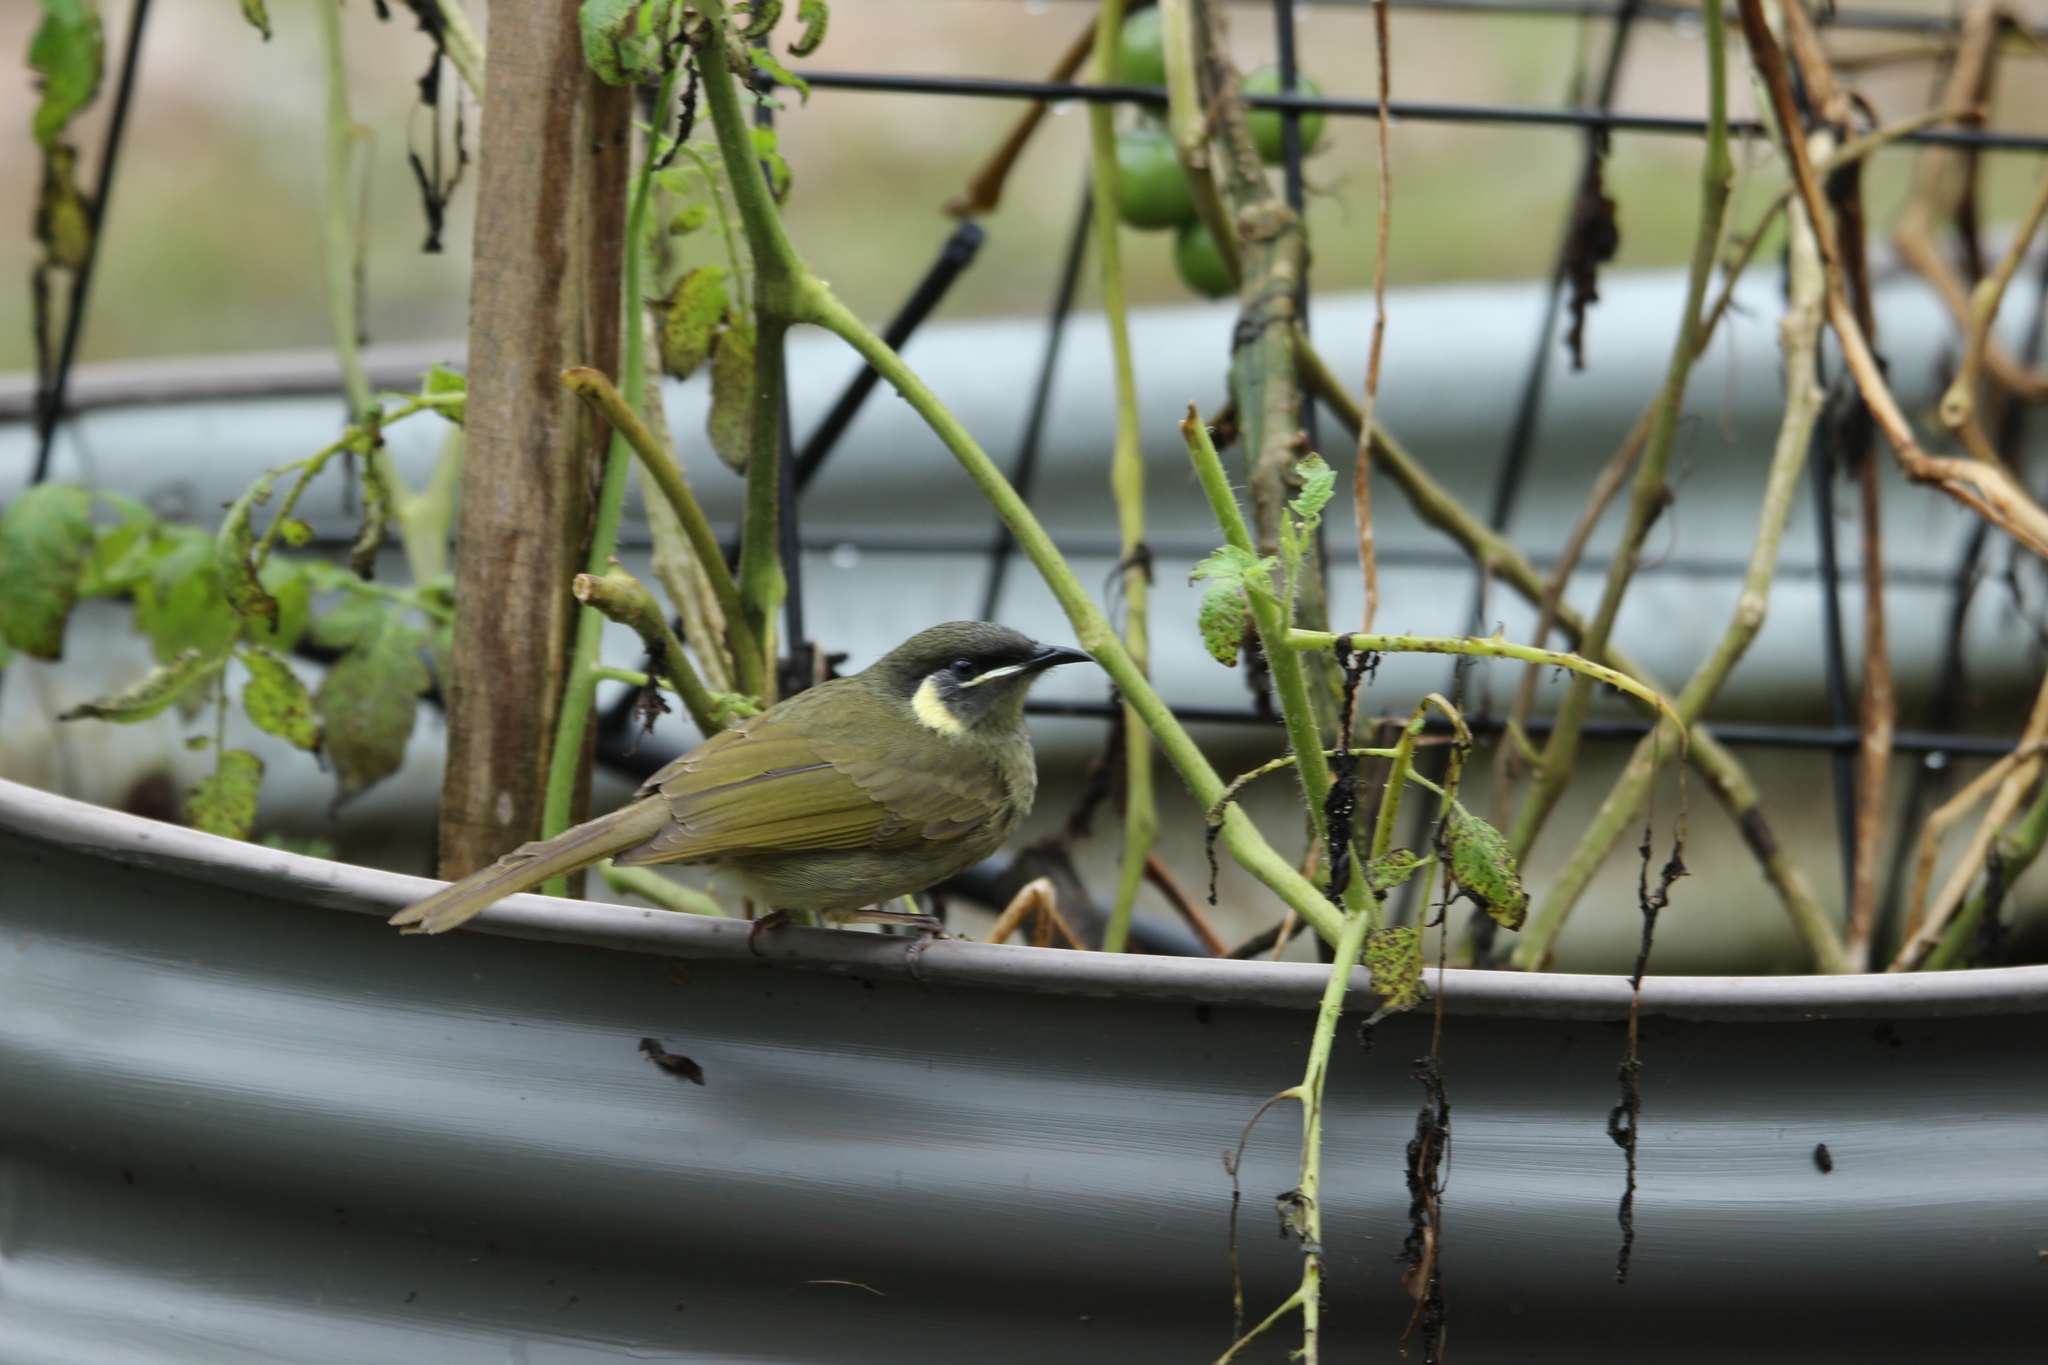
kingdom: Animalia
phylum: Chordata
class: Aves
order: Passeriformes
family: Meliphagidae
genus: Meliphaga
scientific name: Meliphaga lewinii
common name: Lewin's honeyeater
